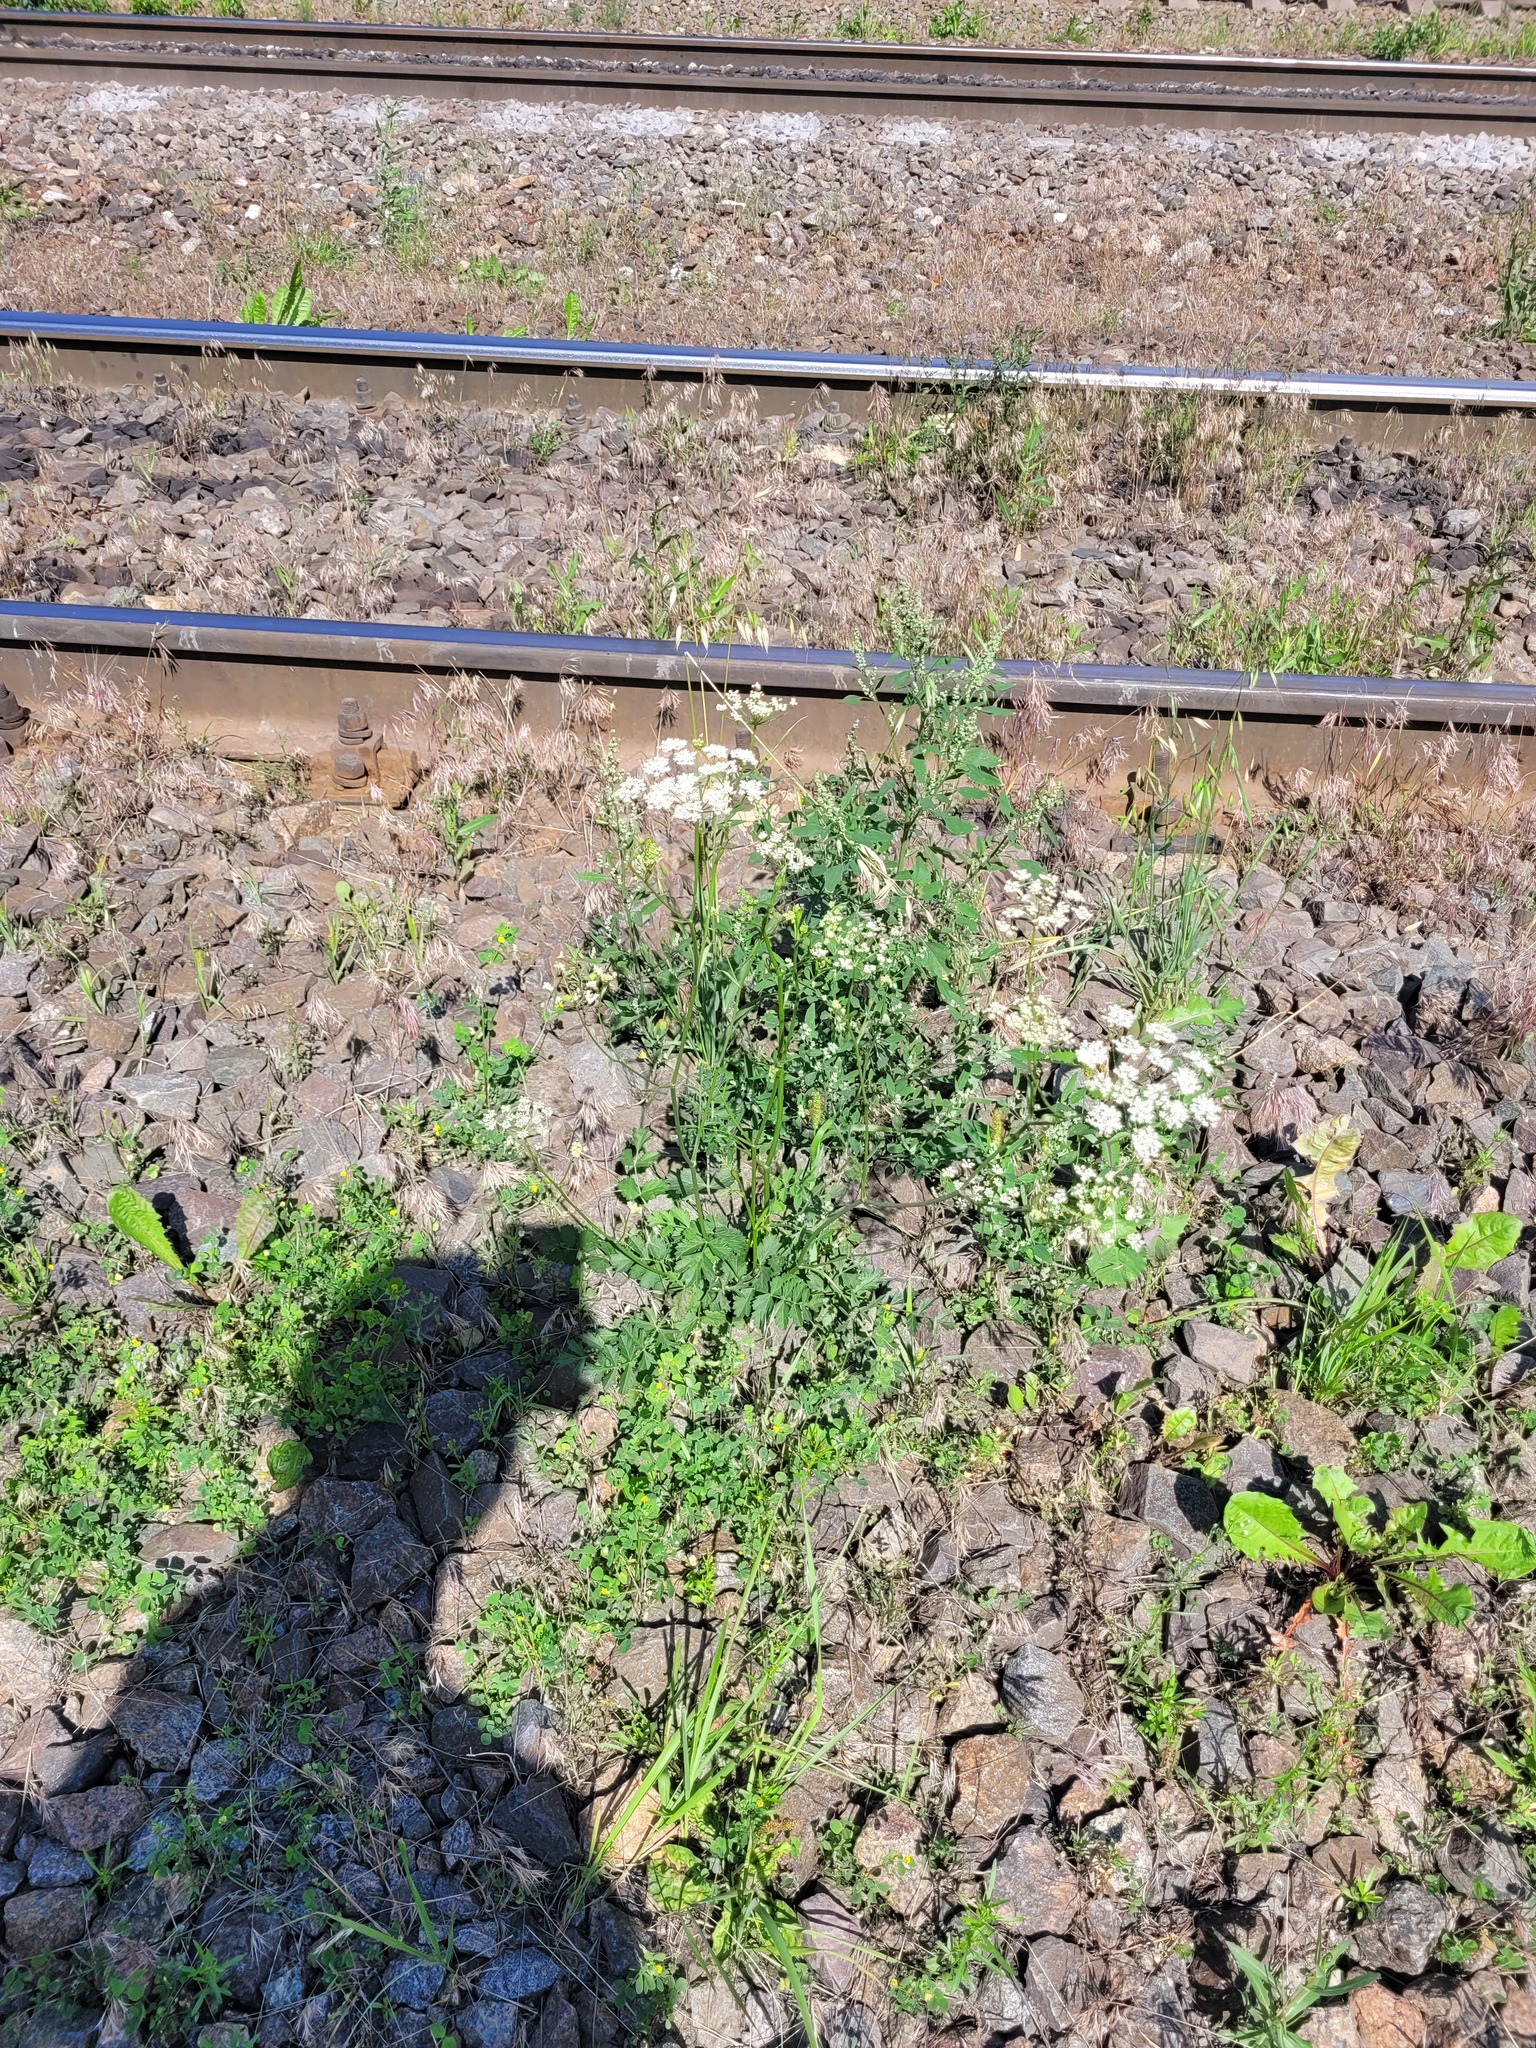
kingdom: Plantae
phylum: Tracheophyta
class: Magnoliopsida
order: Apiales
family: Apiaceae
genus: Pimpinella
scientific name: Pimpinella saxifraga
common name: Burnet-saxifrage
